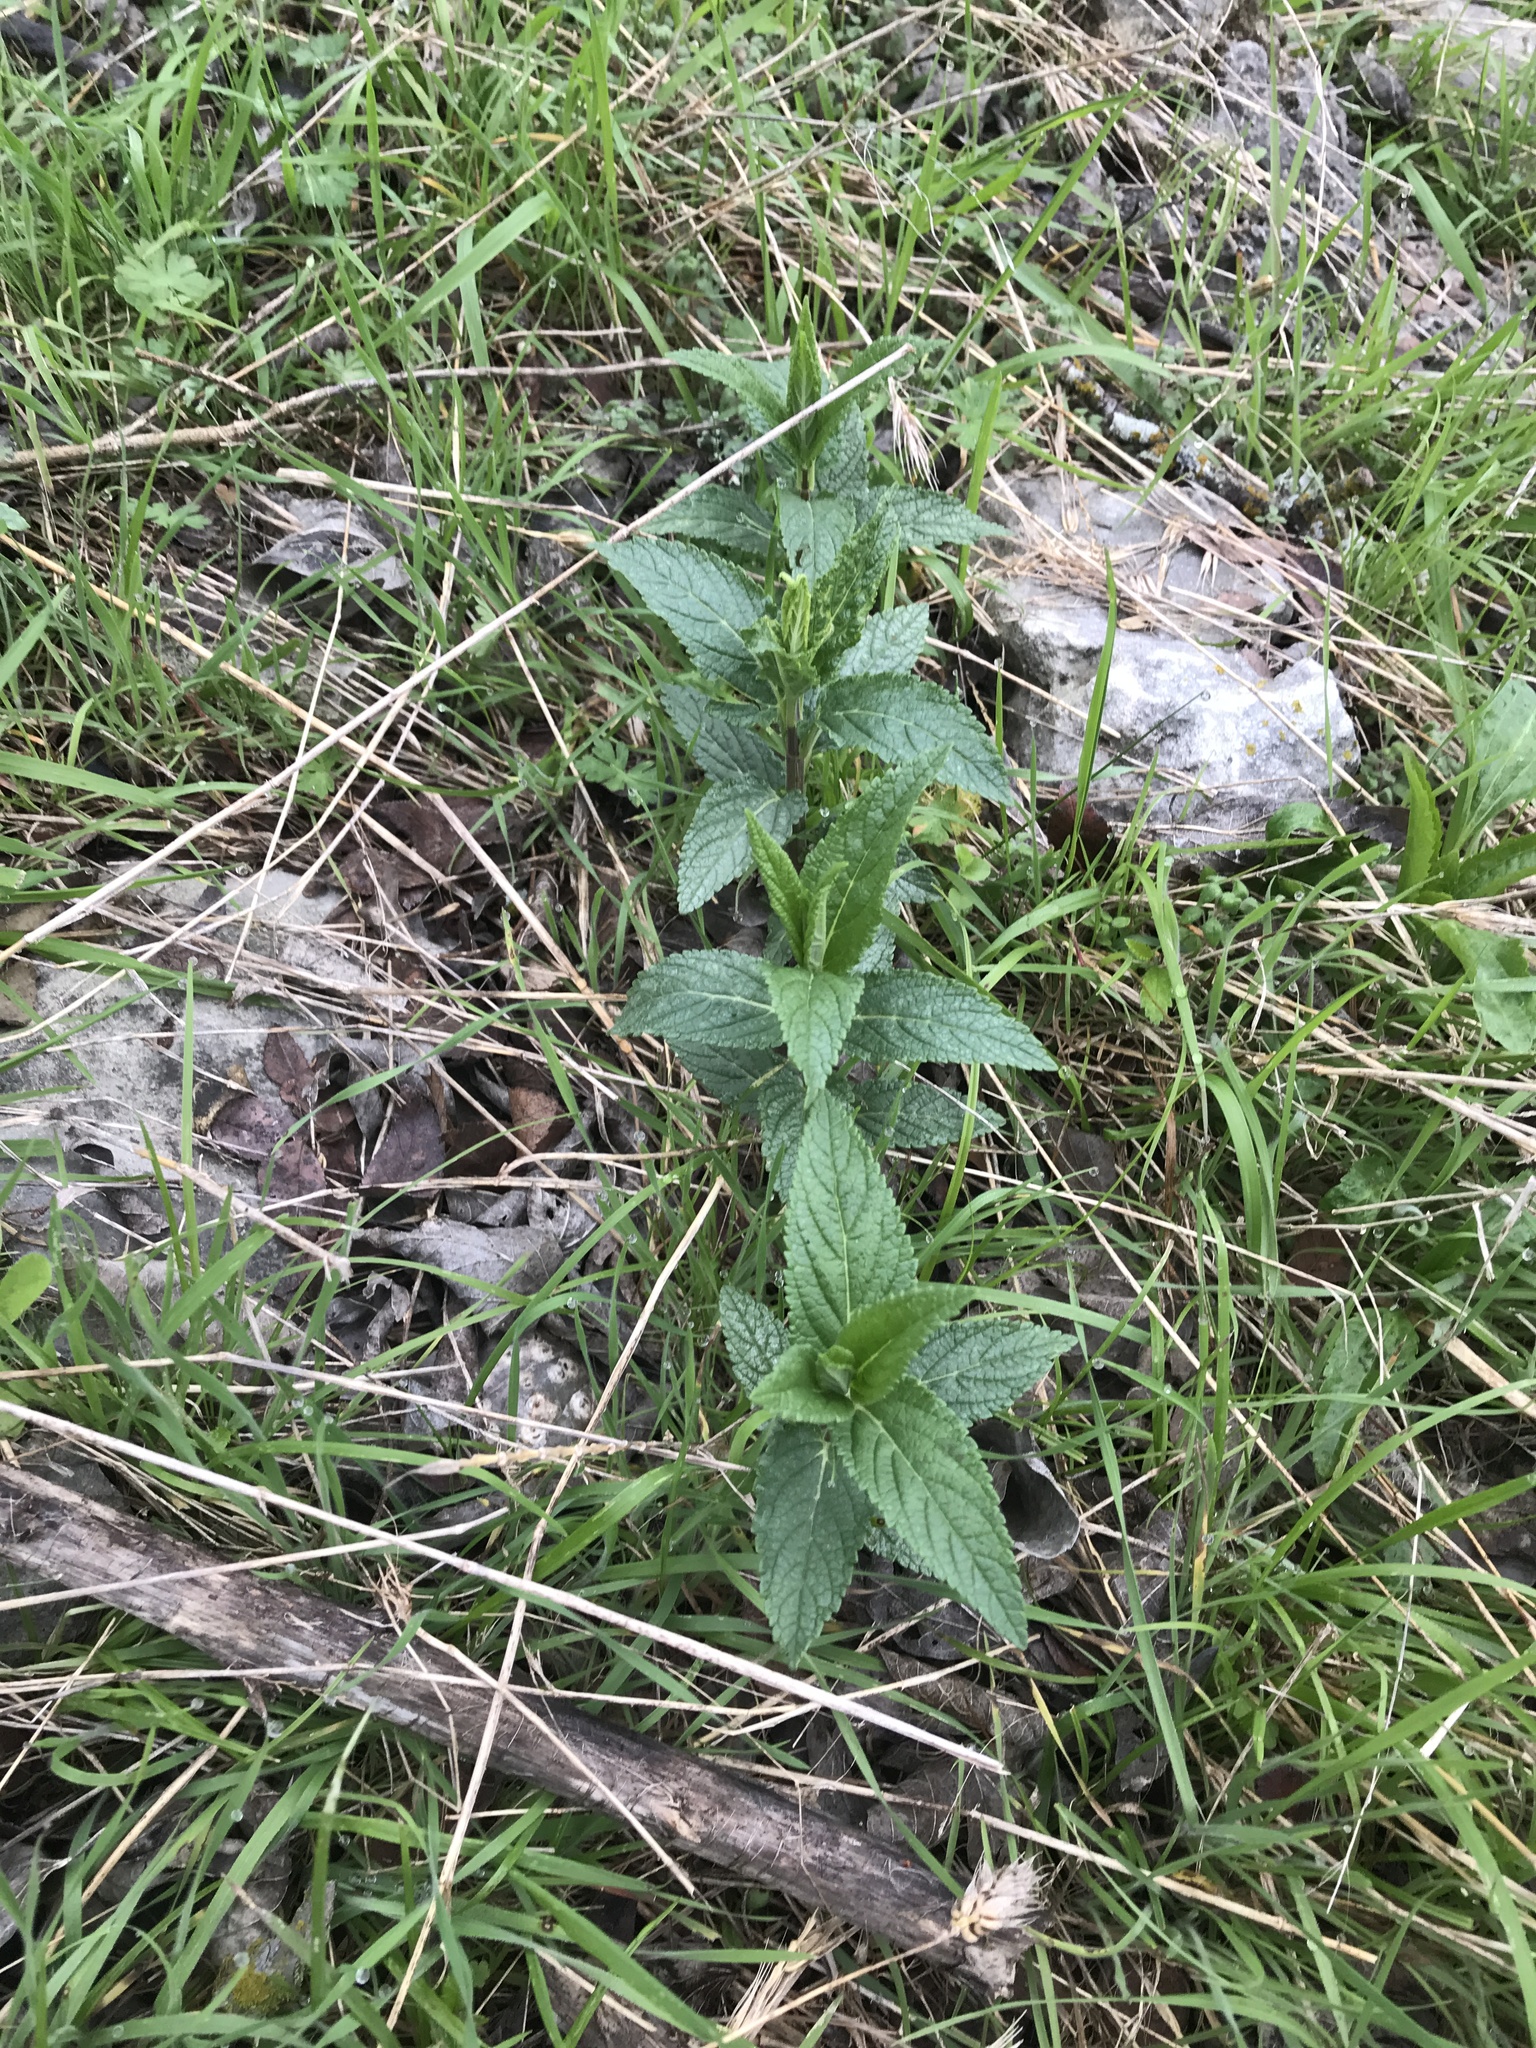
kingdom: Plantae
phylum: Tracheophyta
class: Magnoliopsida
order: Lamiales
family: Lamiaceae
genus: Teucrium
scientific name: Teucrium canadense
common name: American germander
